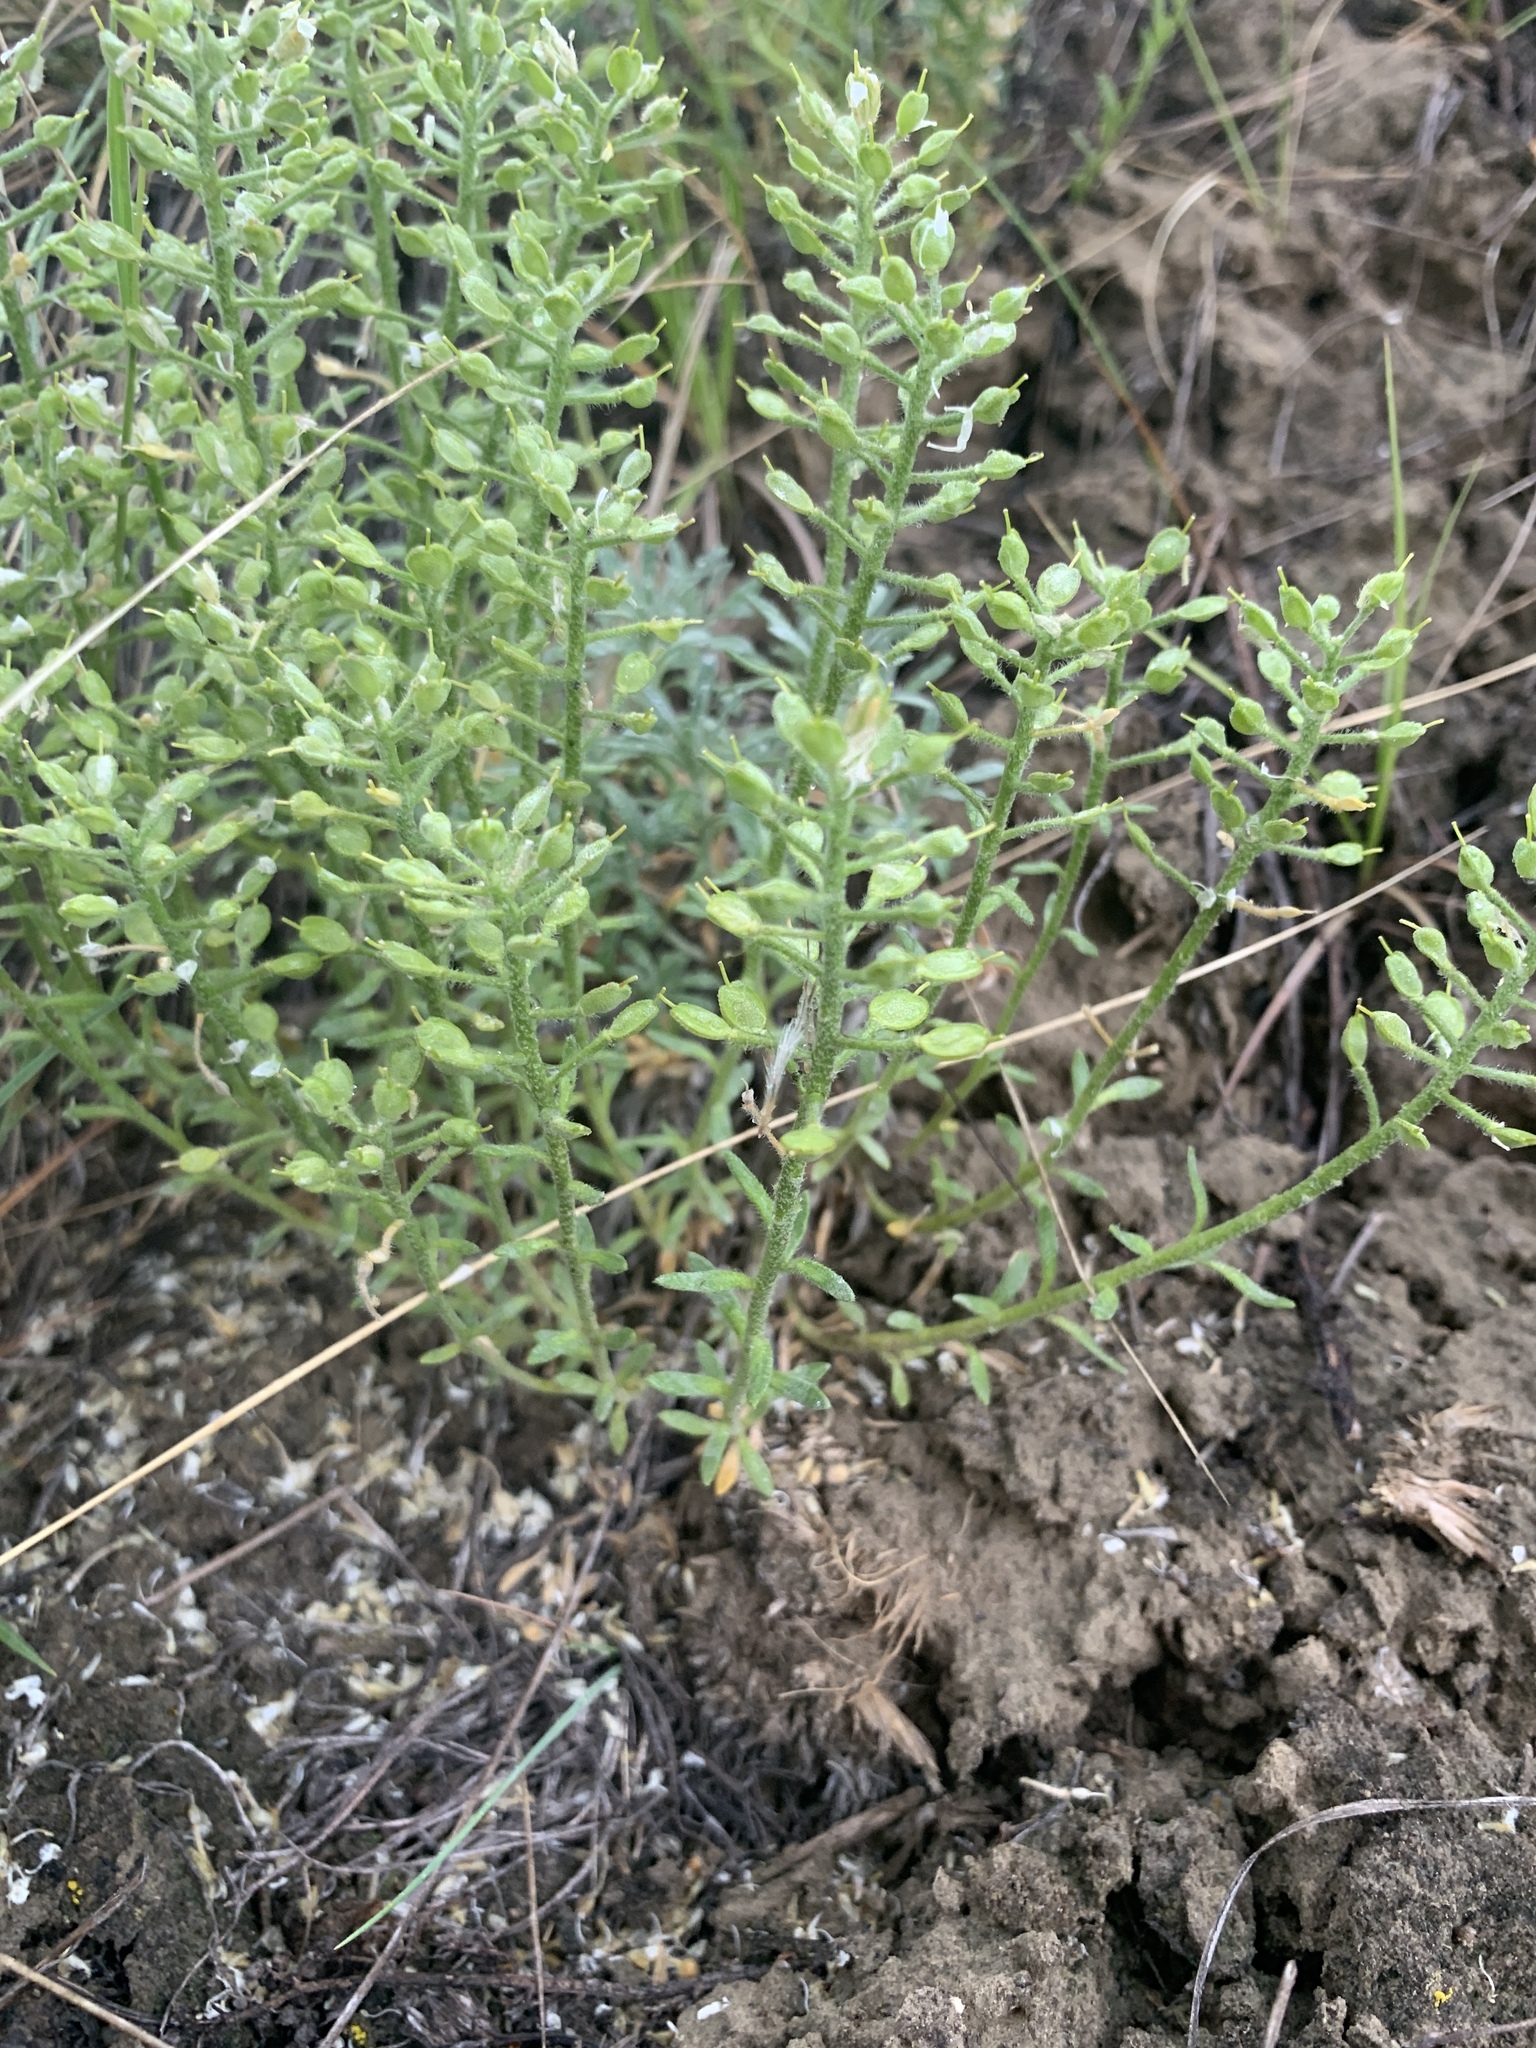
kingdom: Plantae
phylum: Tracheophyta
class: Magnoliopsida
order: Brassicales
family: Brassicaceae
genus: Alyssum
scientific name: Alyssum lenense
